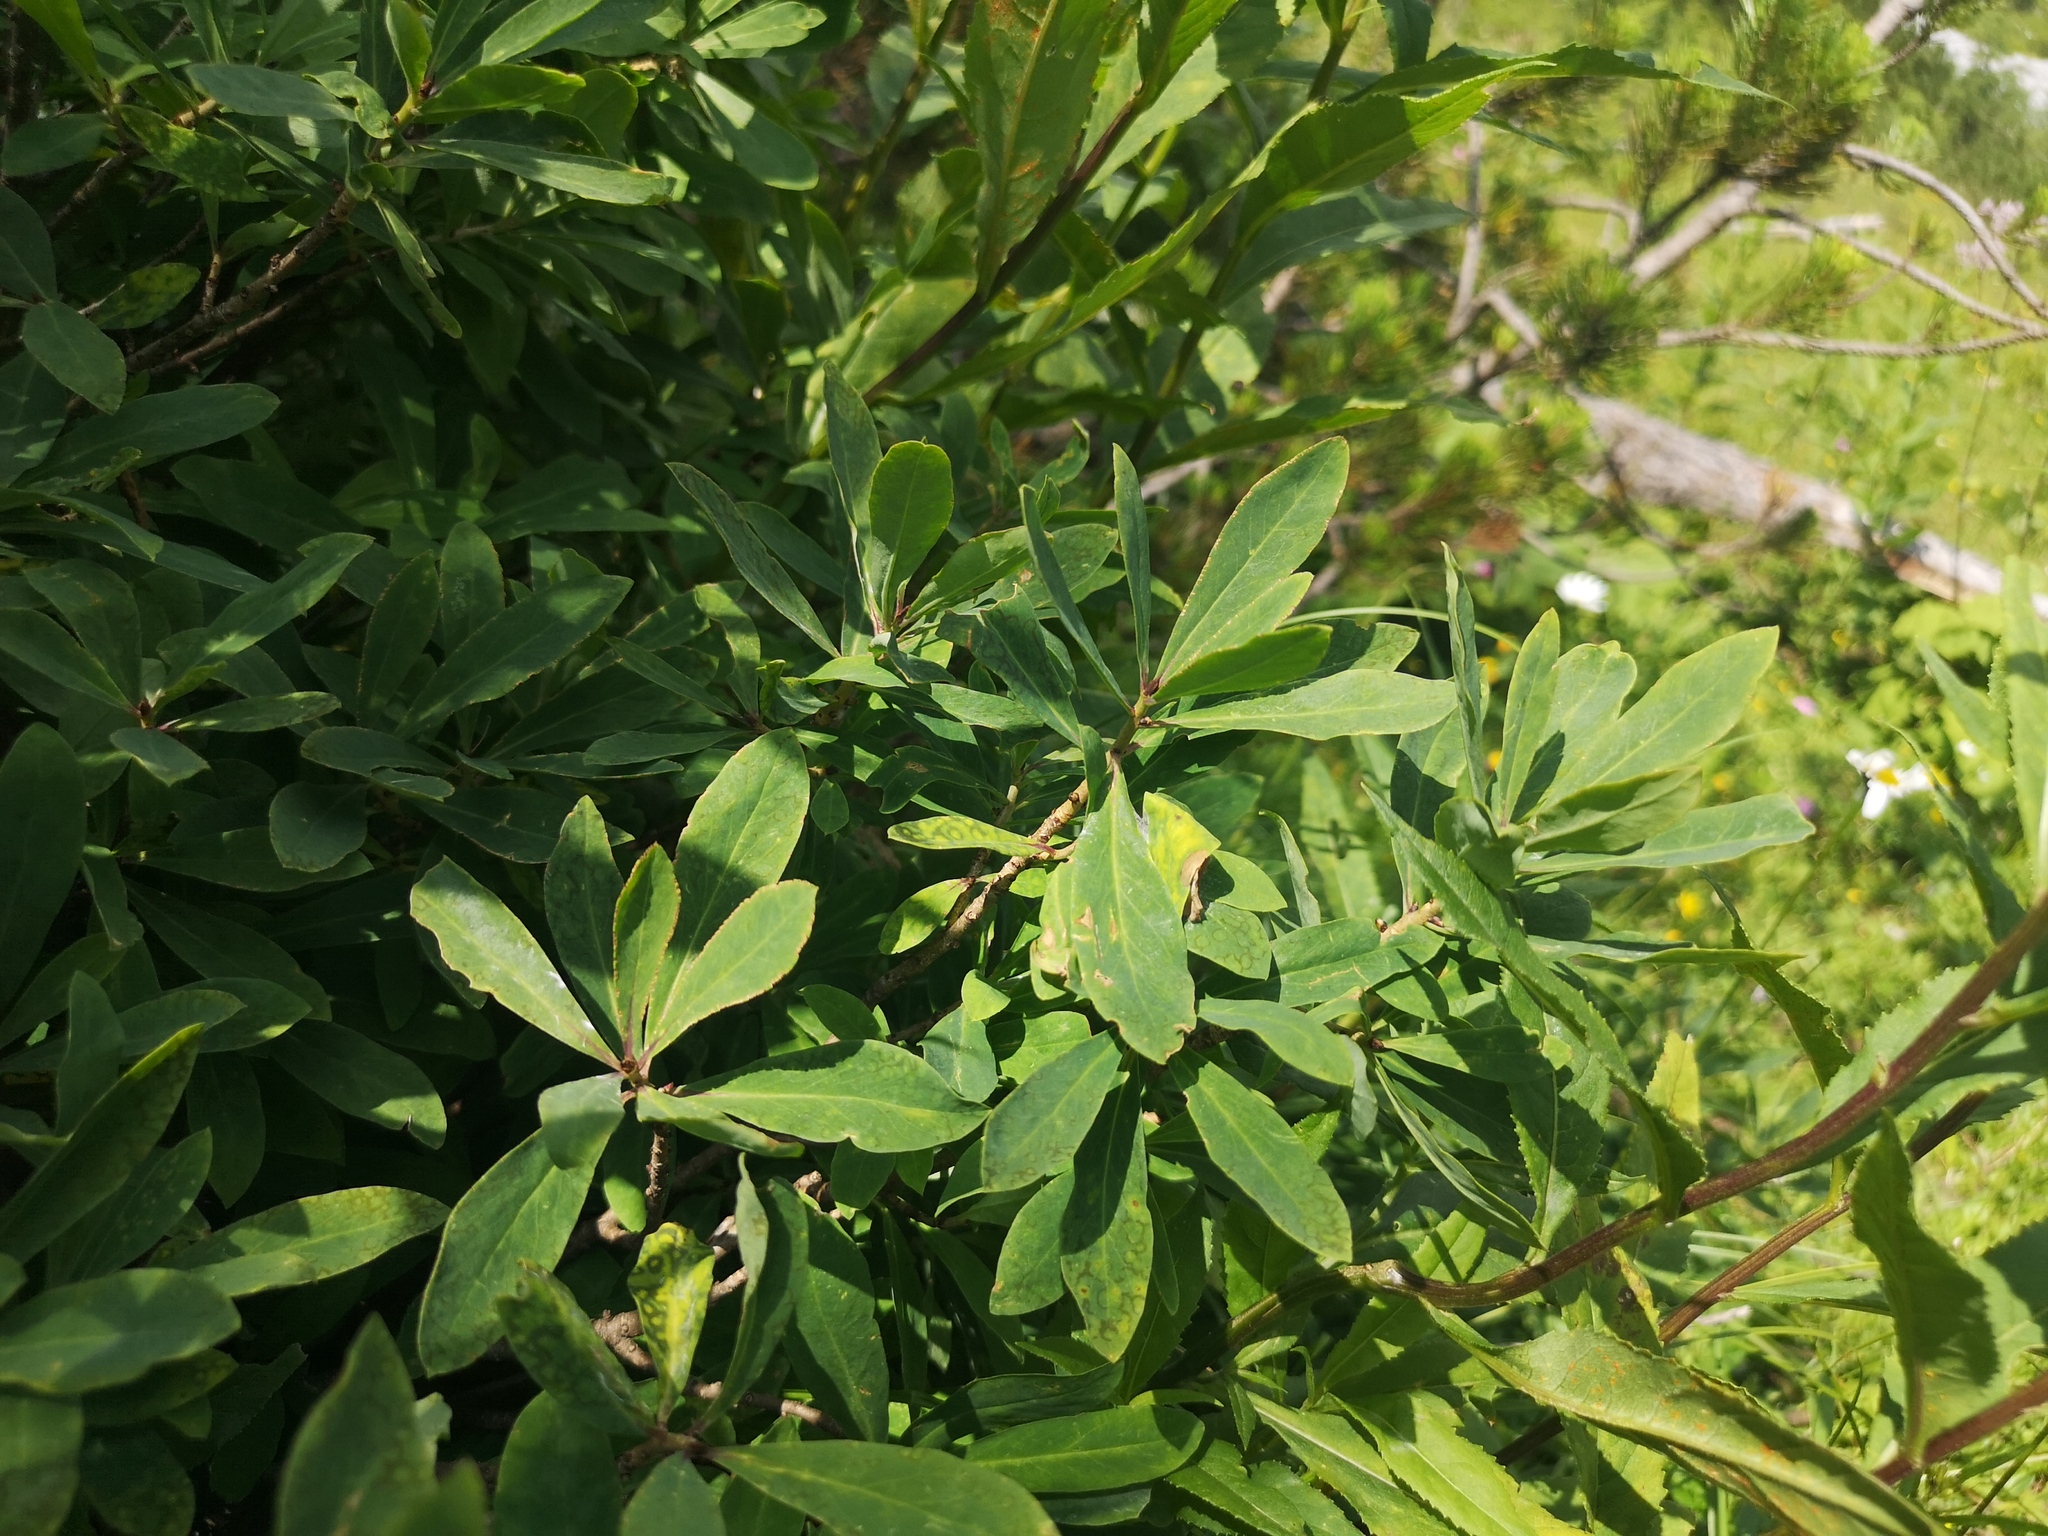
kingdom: Plantae
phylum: Tracheophyta
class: Magnoliopsida
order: Malvales
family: Thymelaeaceae
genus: Daphne
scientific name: Daphne mezereum
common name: Mezereon
